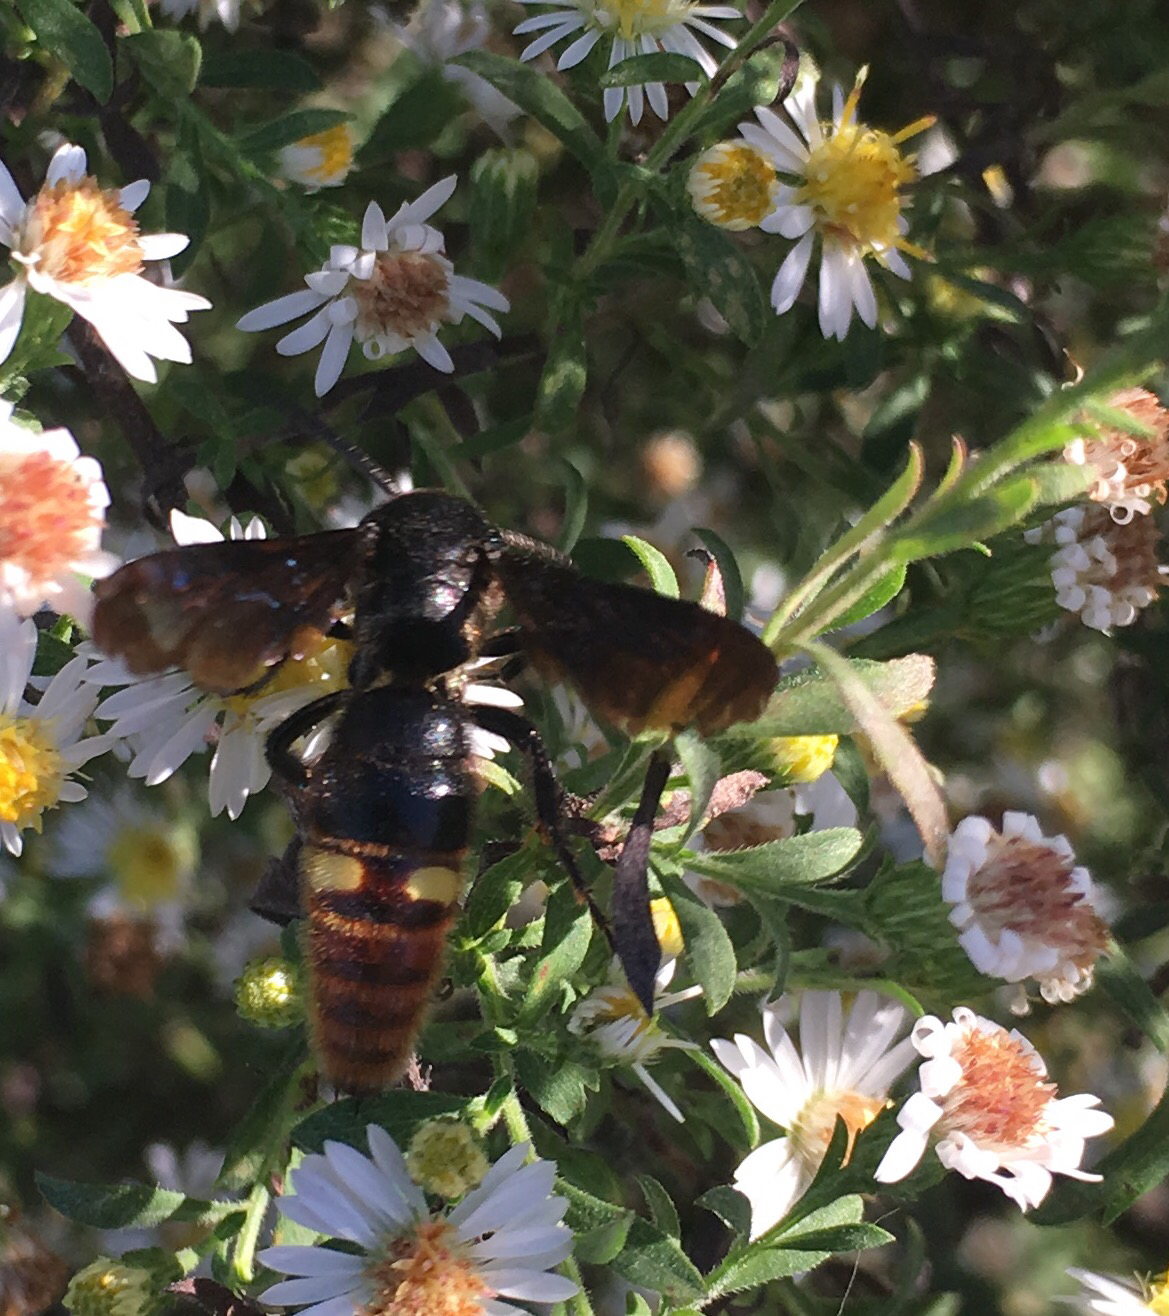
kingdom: Animalia
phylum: Arthropoda
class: Insecta
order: Hymenoptera
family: Scoliidae
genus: Scolia
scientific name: Scolia dubia
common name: Blue-winged scoliid wasp
